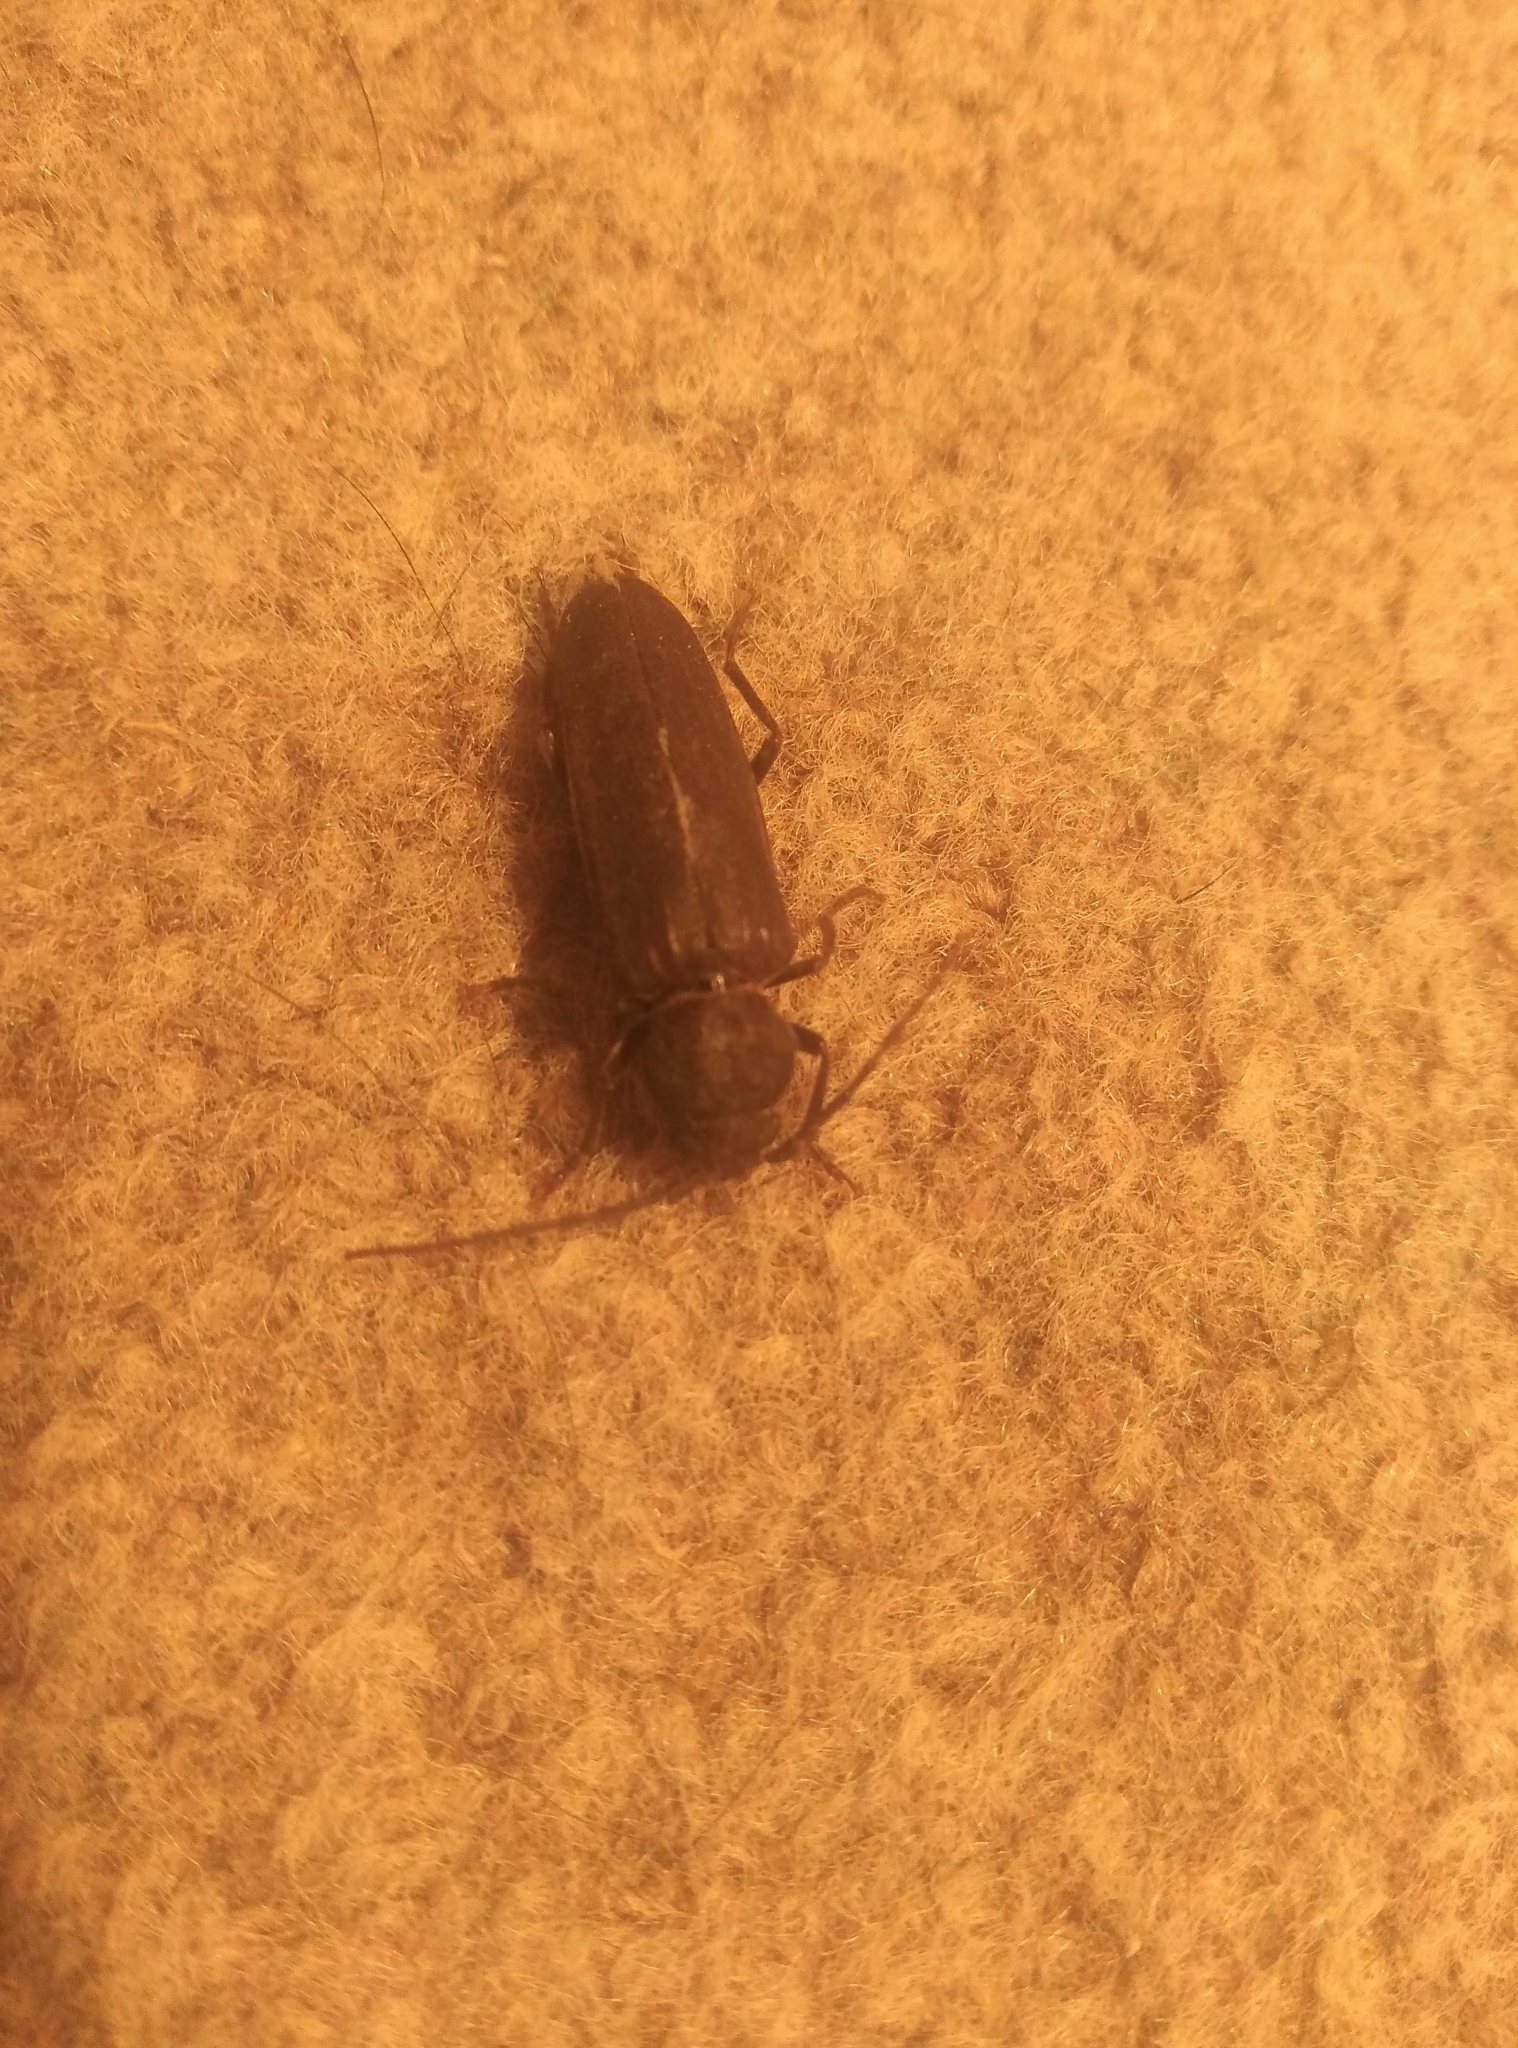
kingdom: Animalia
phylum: Arthropoda
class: Insecta
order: Coleoptera
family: Cerambycidae
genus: Arhopalus
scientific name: Arhopalus ferus
